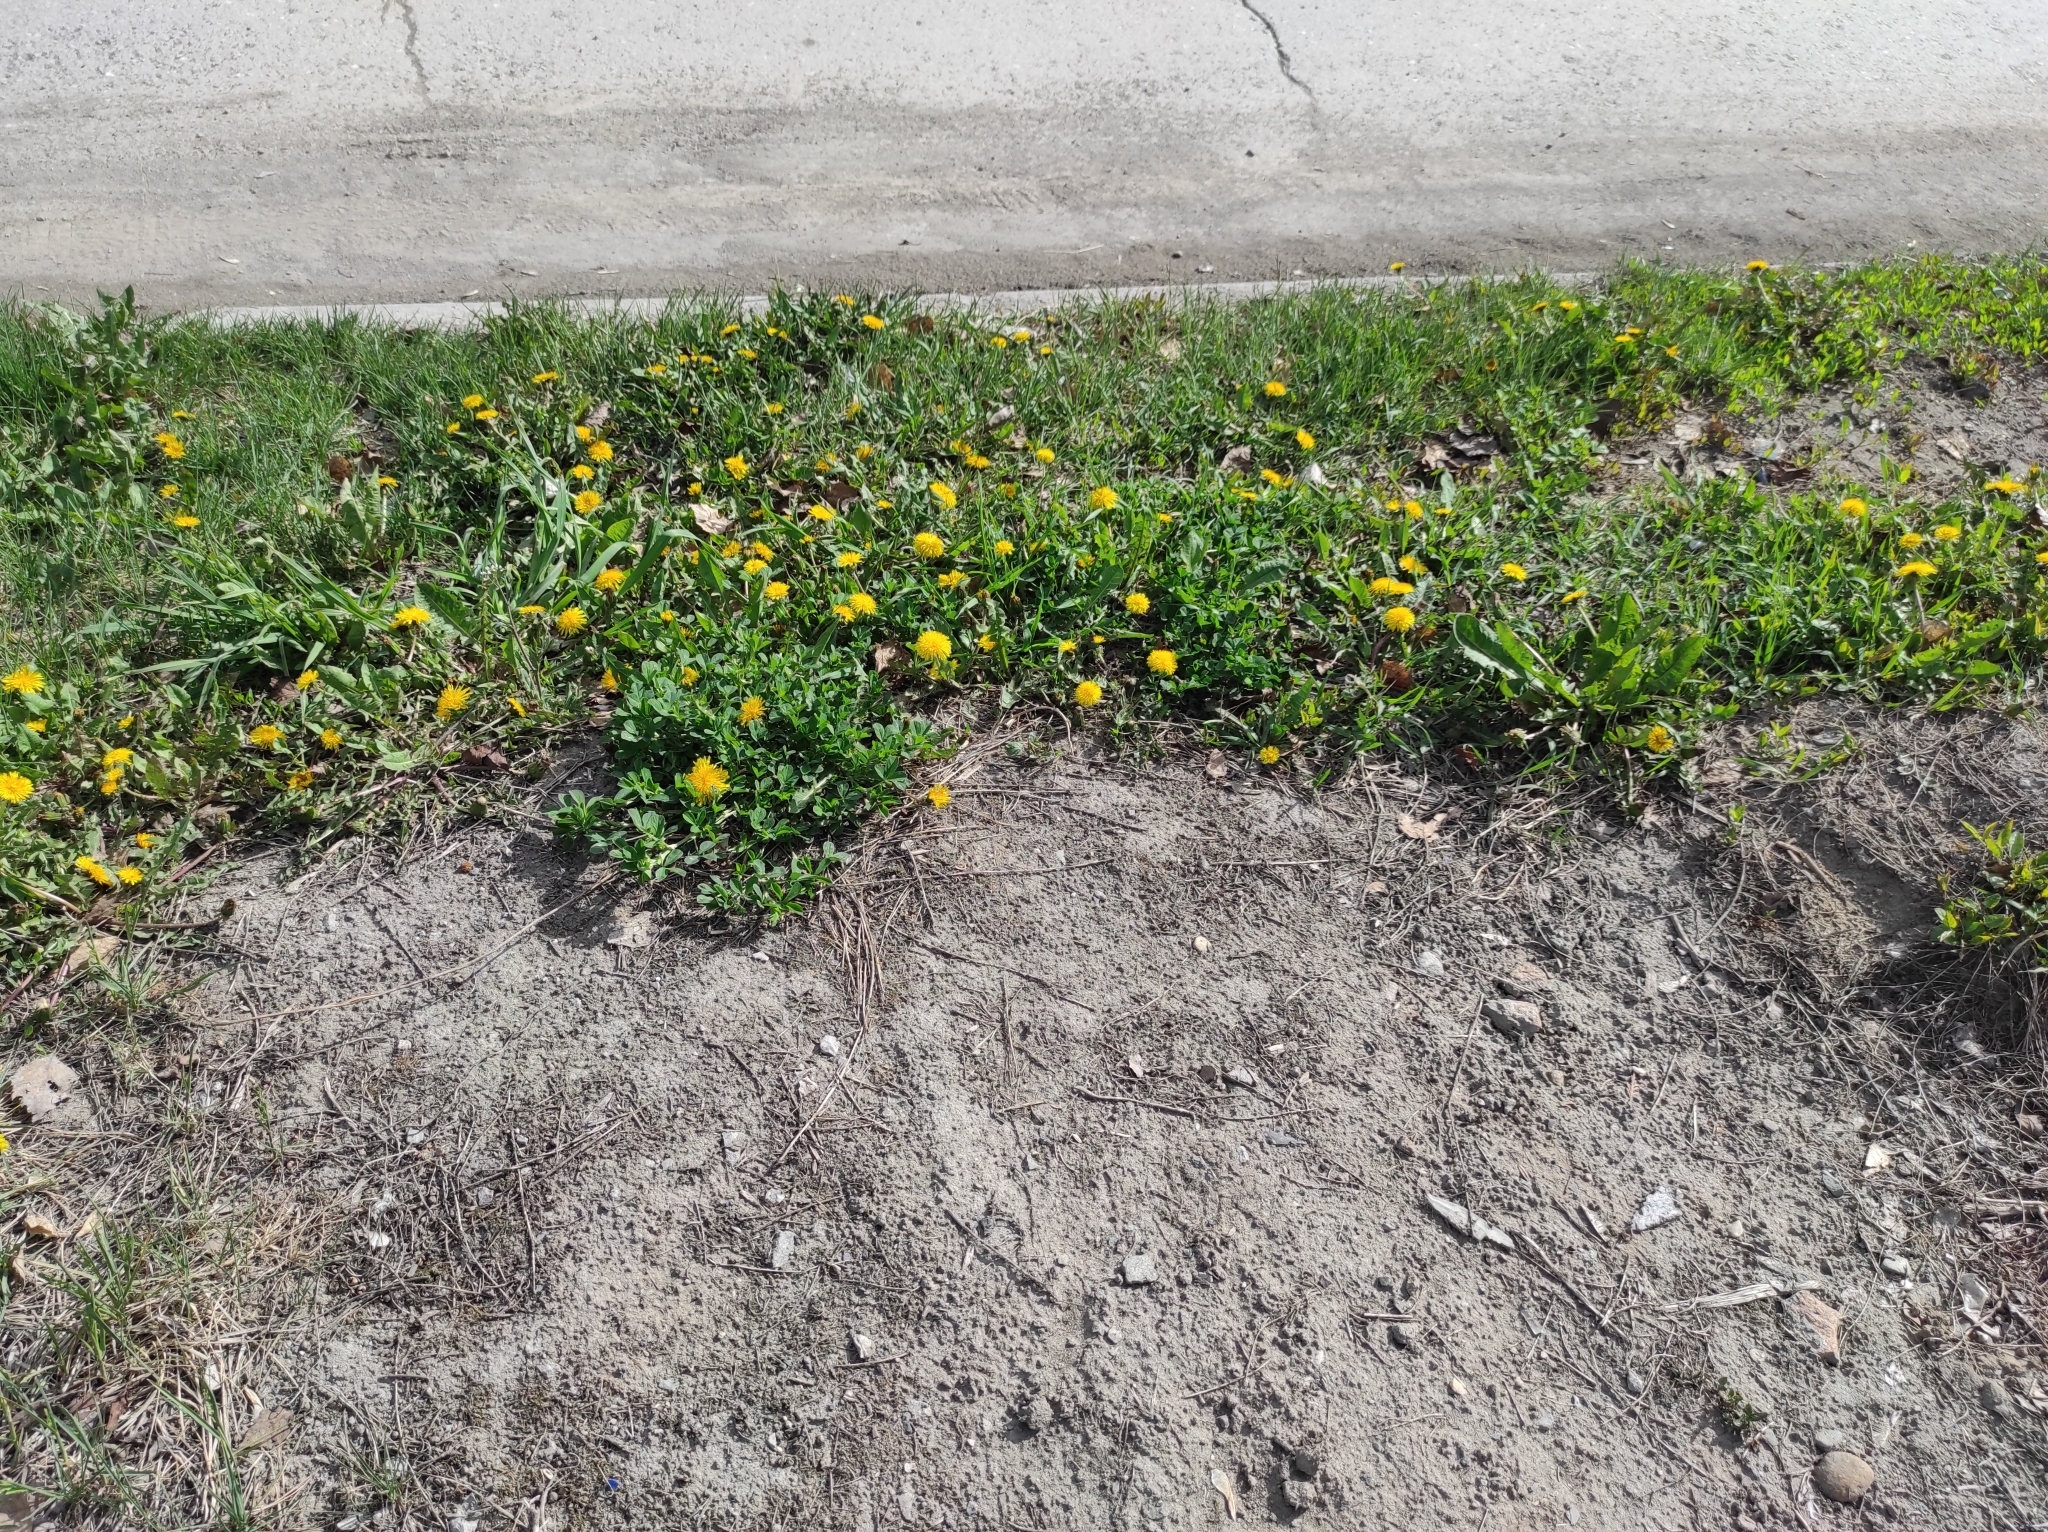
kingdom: Plantae
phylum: Tracheophyta
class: Magnoliopsida
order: Asterales
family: Asteraceae
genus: Taraxacum
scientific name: Taraxacum officinale
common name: Common dandelion
